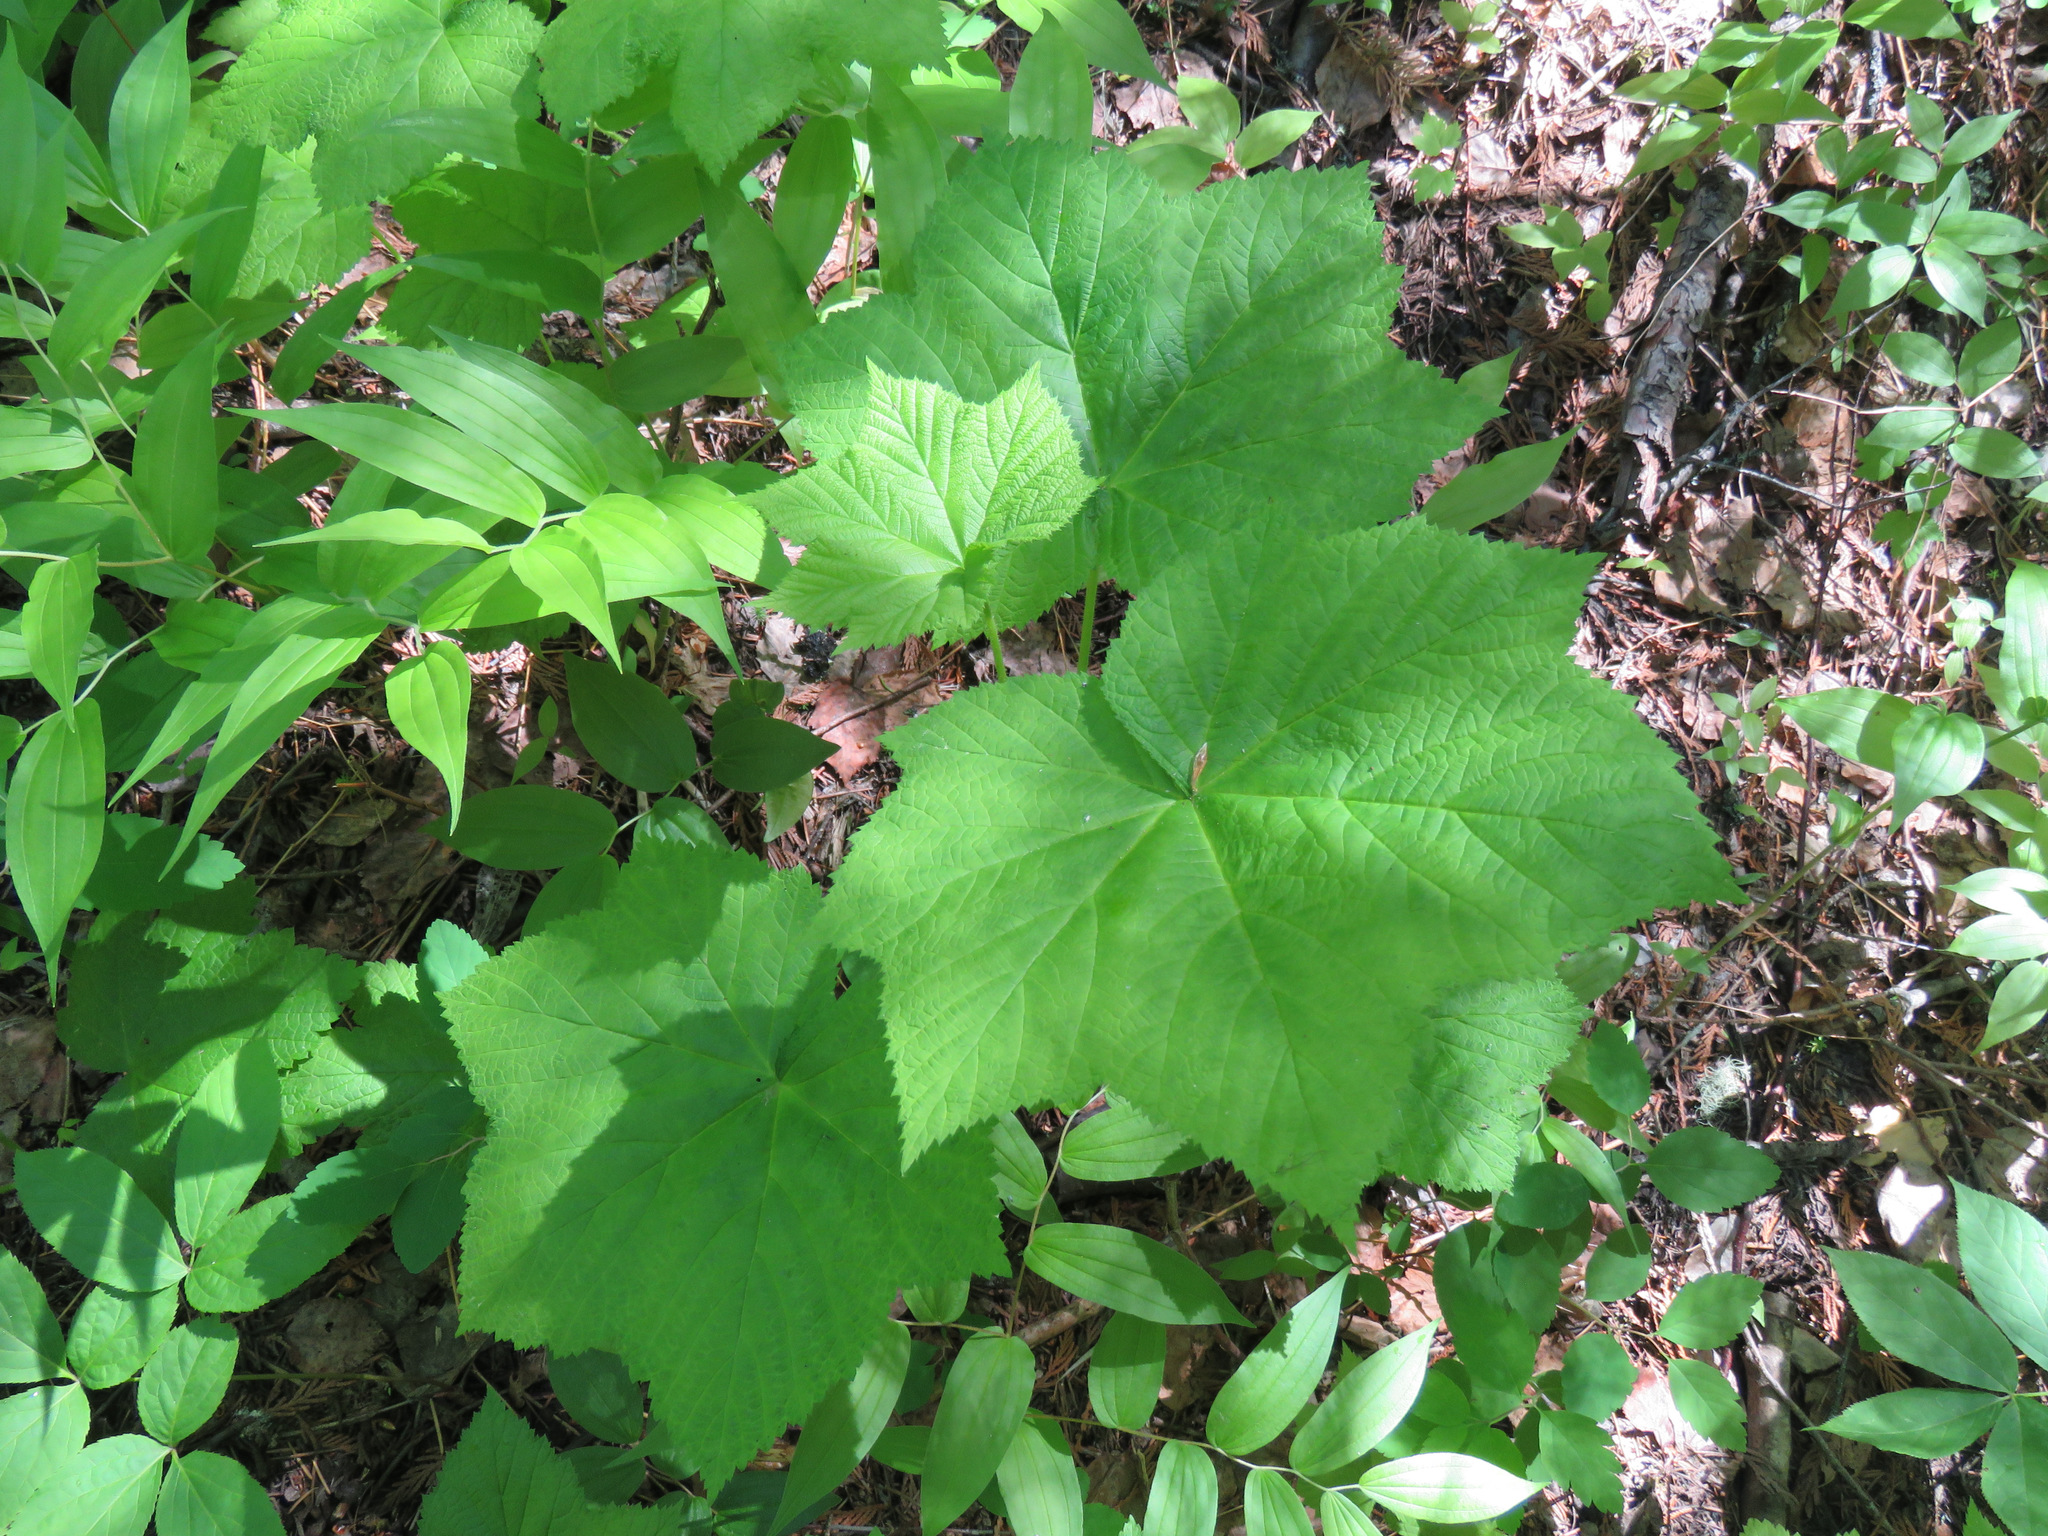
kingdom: Plantae
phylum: Tracheophyta
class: Magnoliopsida
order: Rosales
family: Rosaceae
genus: Rubus
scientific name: Rubus parviflorus
